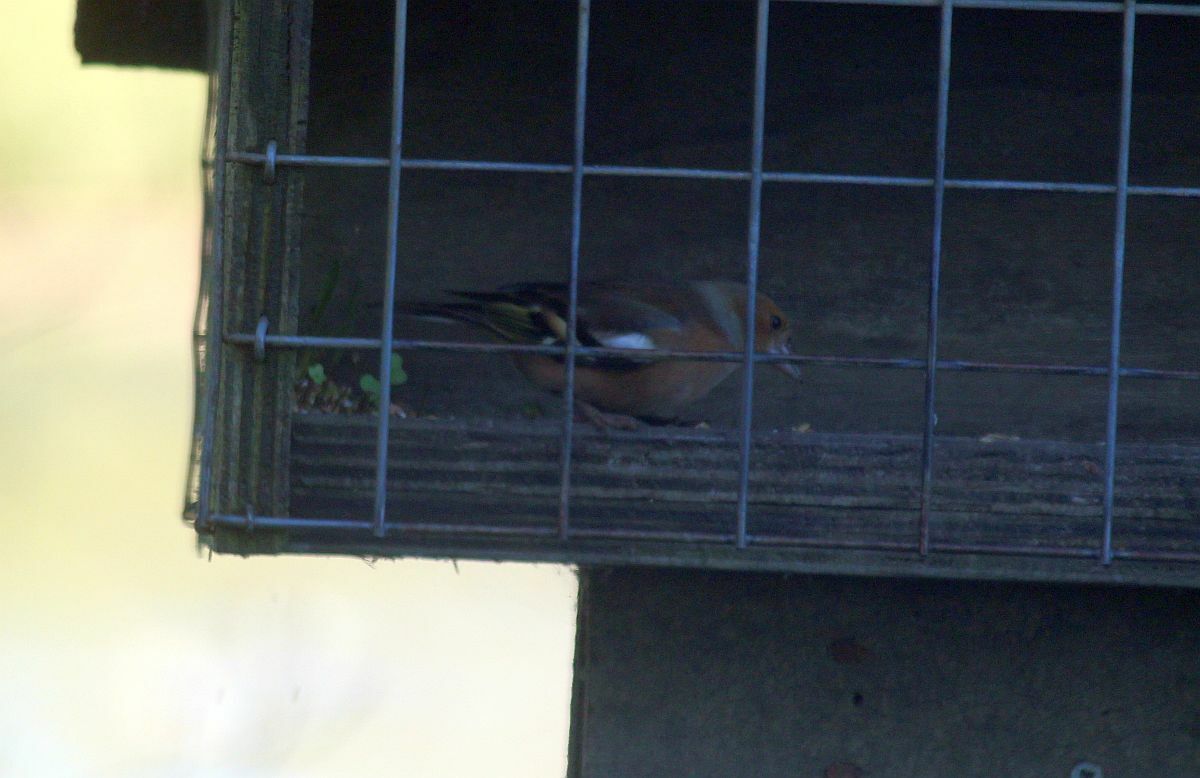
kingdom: Animalia
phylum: Chordata
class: Aves
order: Passeriformes
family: Fringillidae
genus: Fringilla
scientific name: Fringilla coelebs
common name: Common chaffinch
